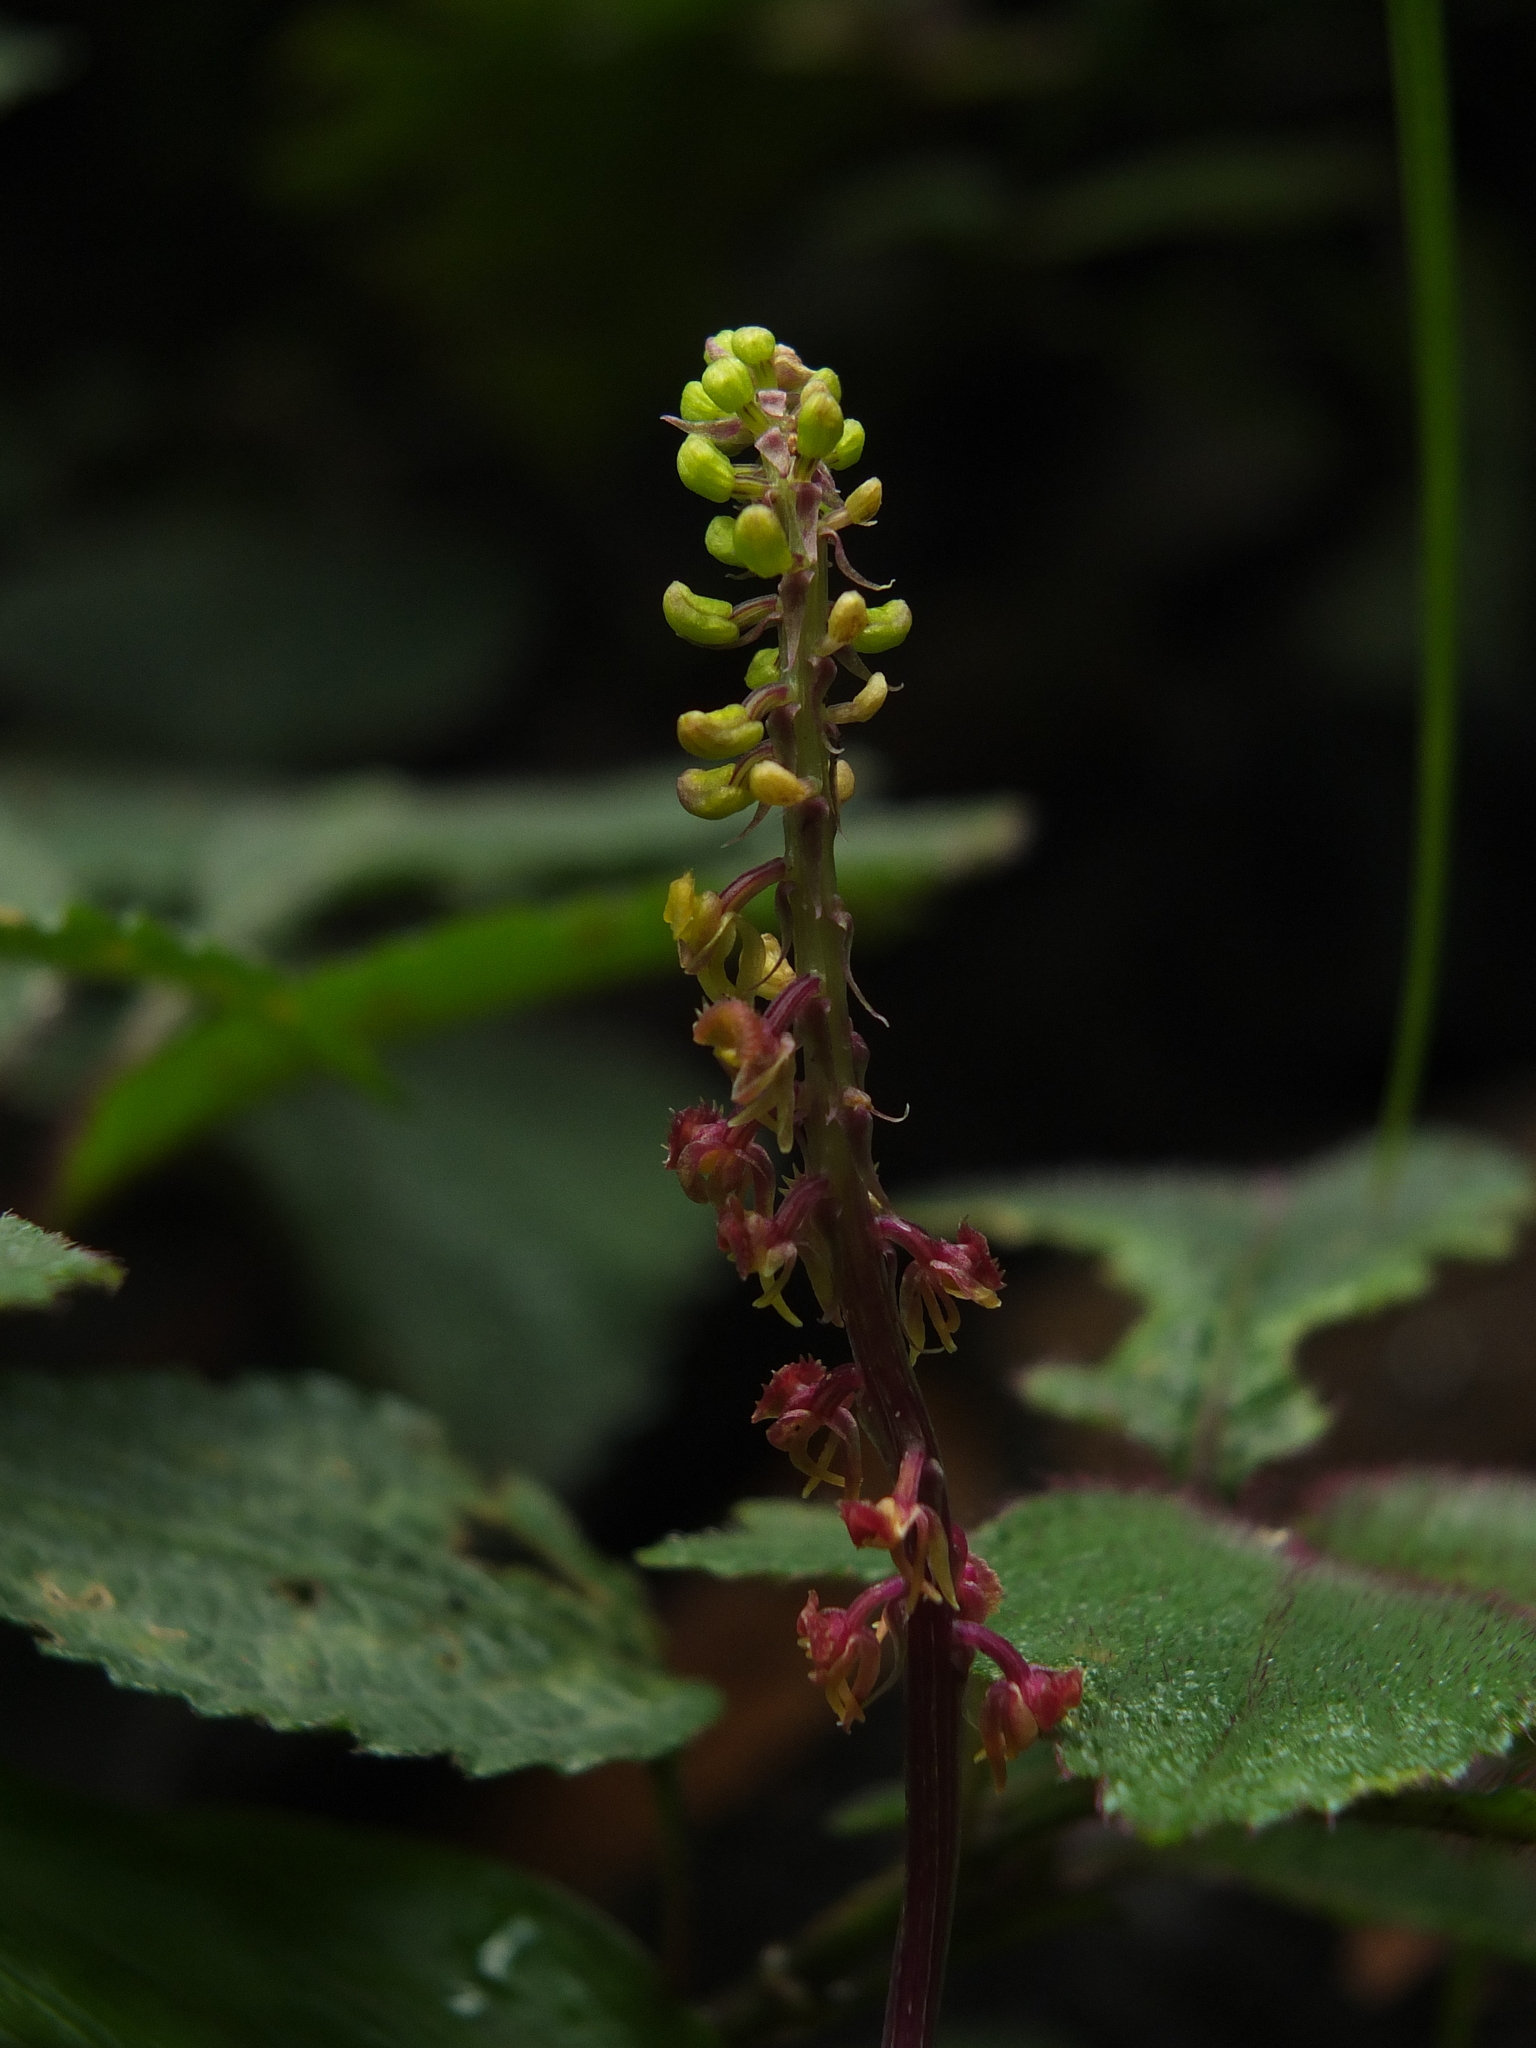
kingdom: Plantae
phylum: Tracheophyta
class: Liliopsida
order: Asparagales
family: Orchidaceae
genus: Malaxis
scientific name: Malaxis versicolor
